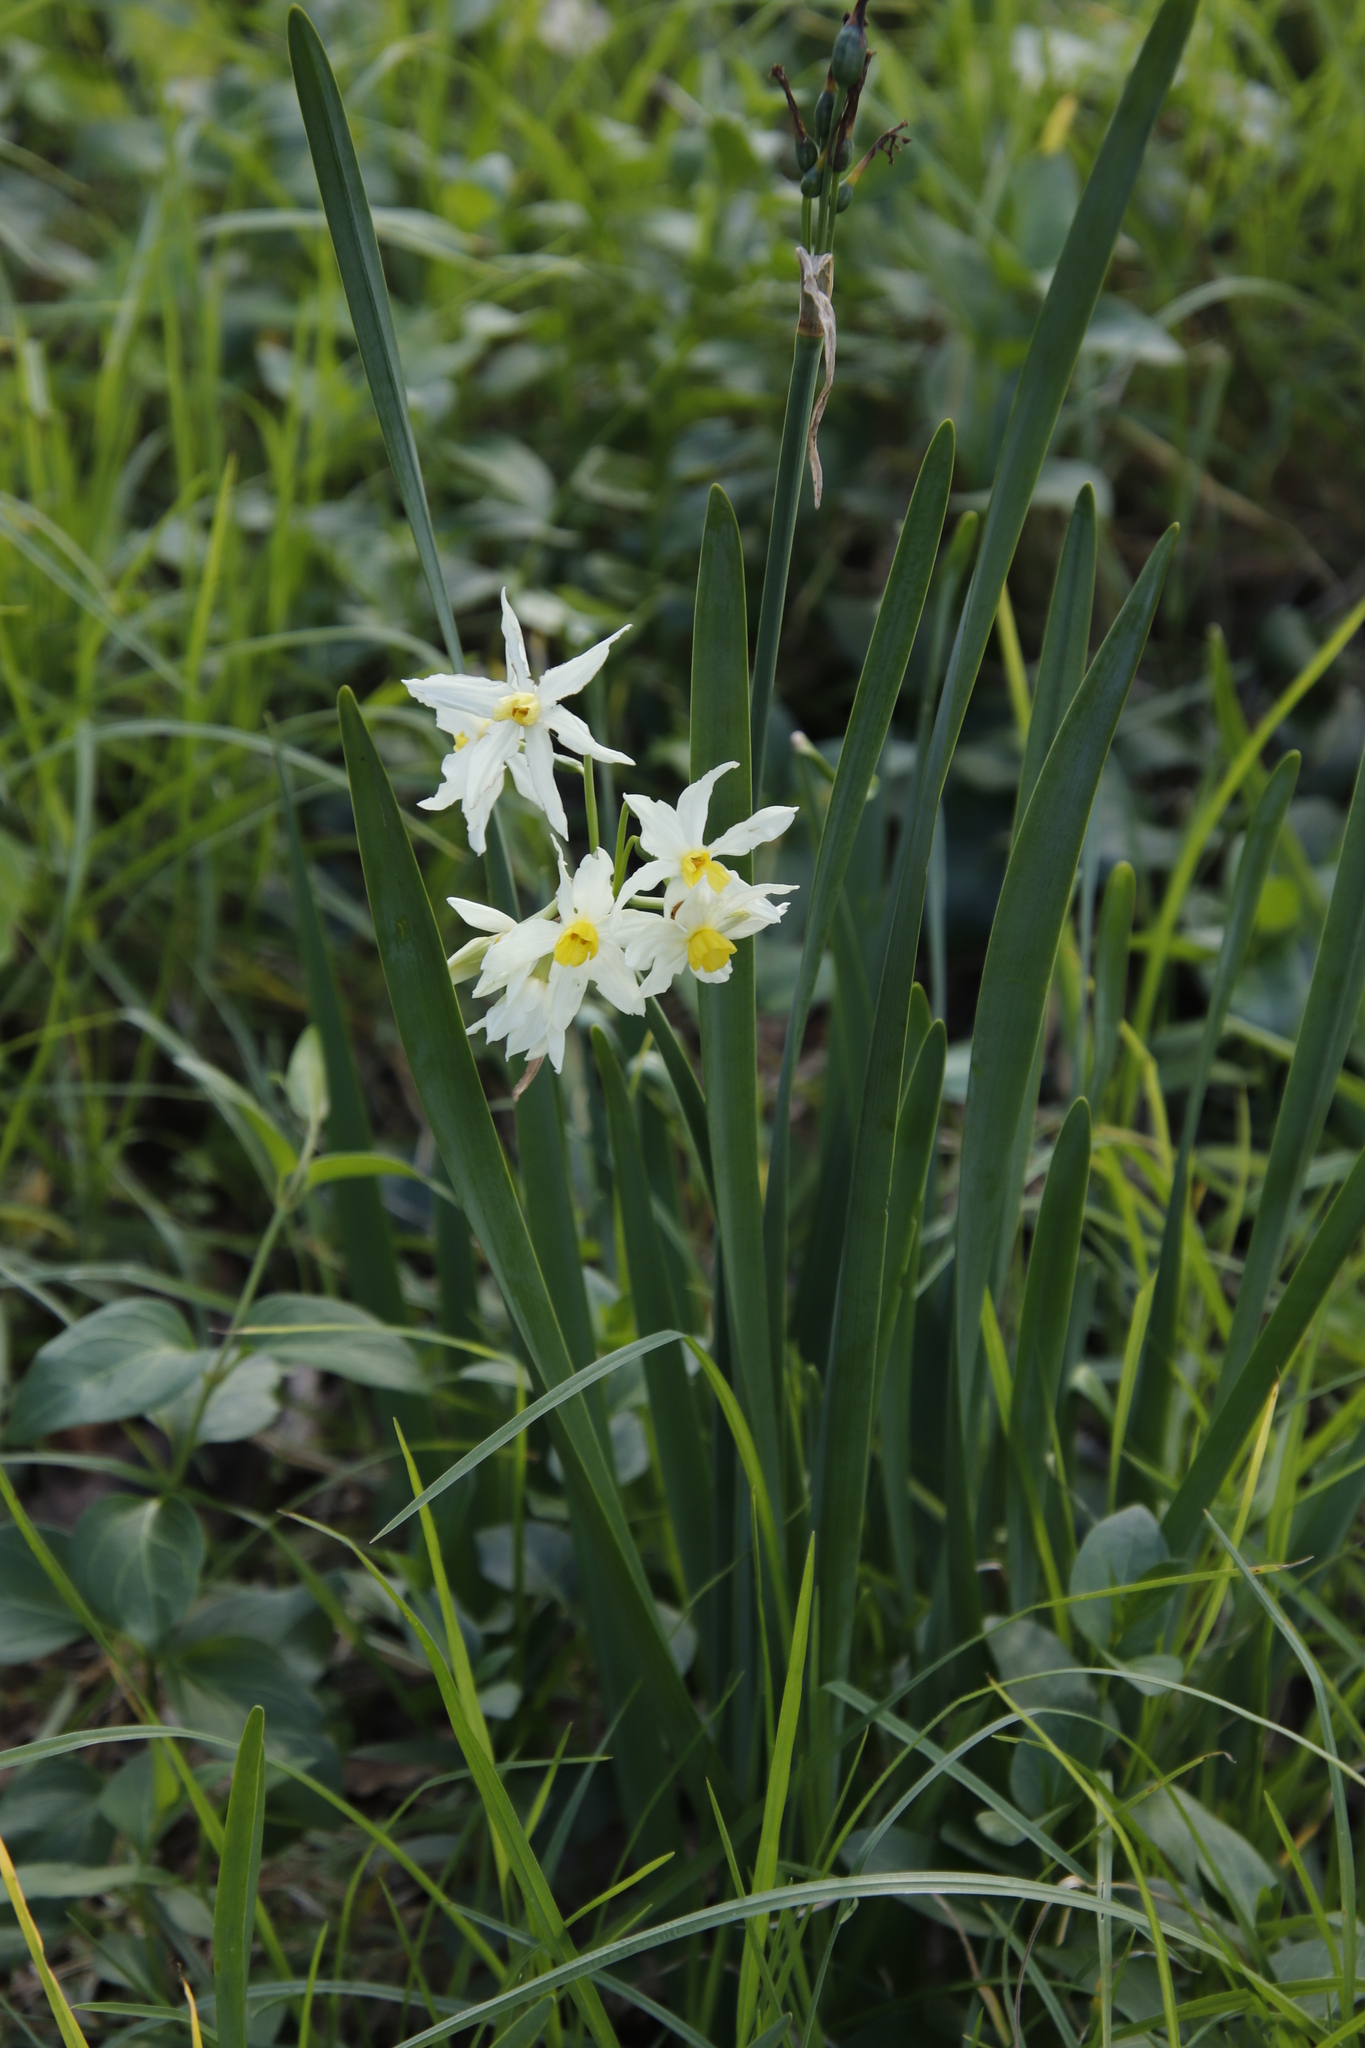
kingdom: Plantae
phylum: Tracheophyta
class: Liliopsida
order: Asparagales
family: Amaryllidaceae
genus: Narcissus
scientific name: Narcissus tazetta
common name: Bunch-flowered daffodil
